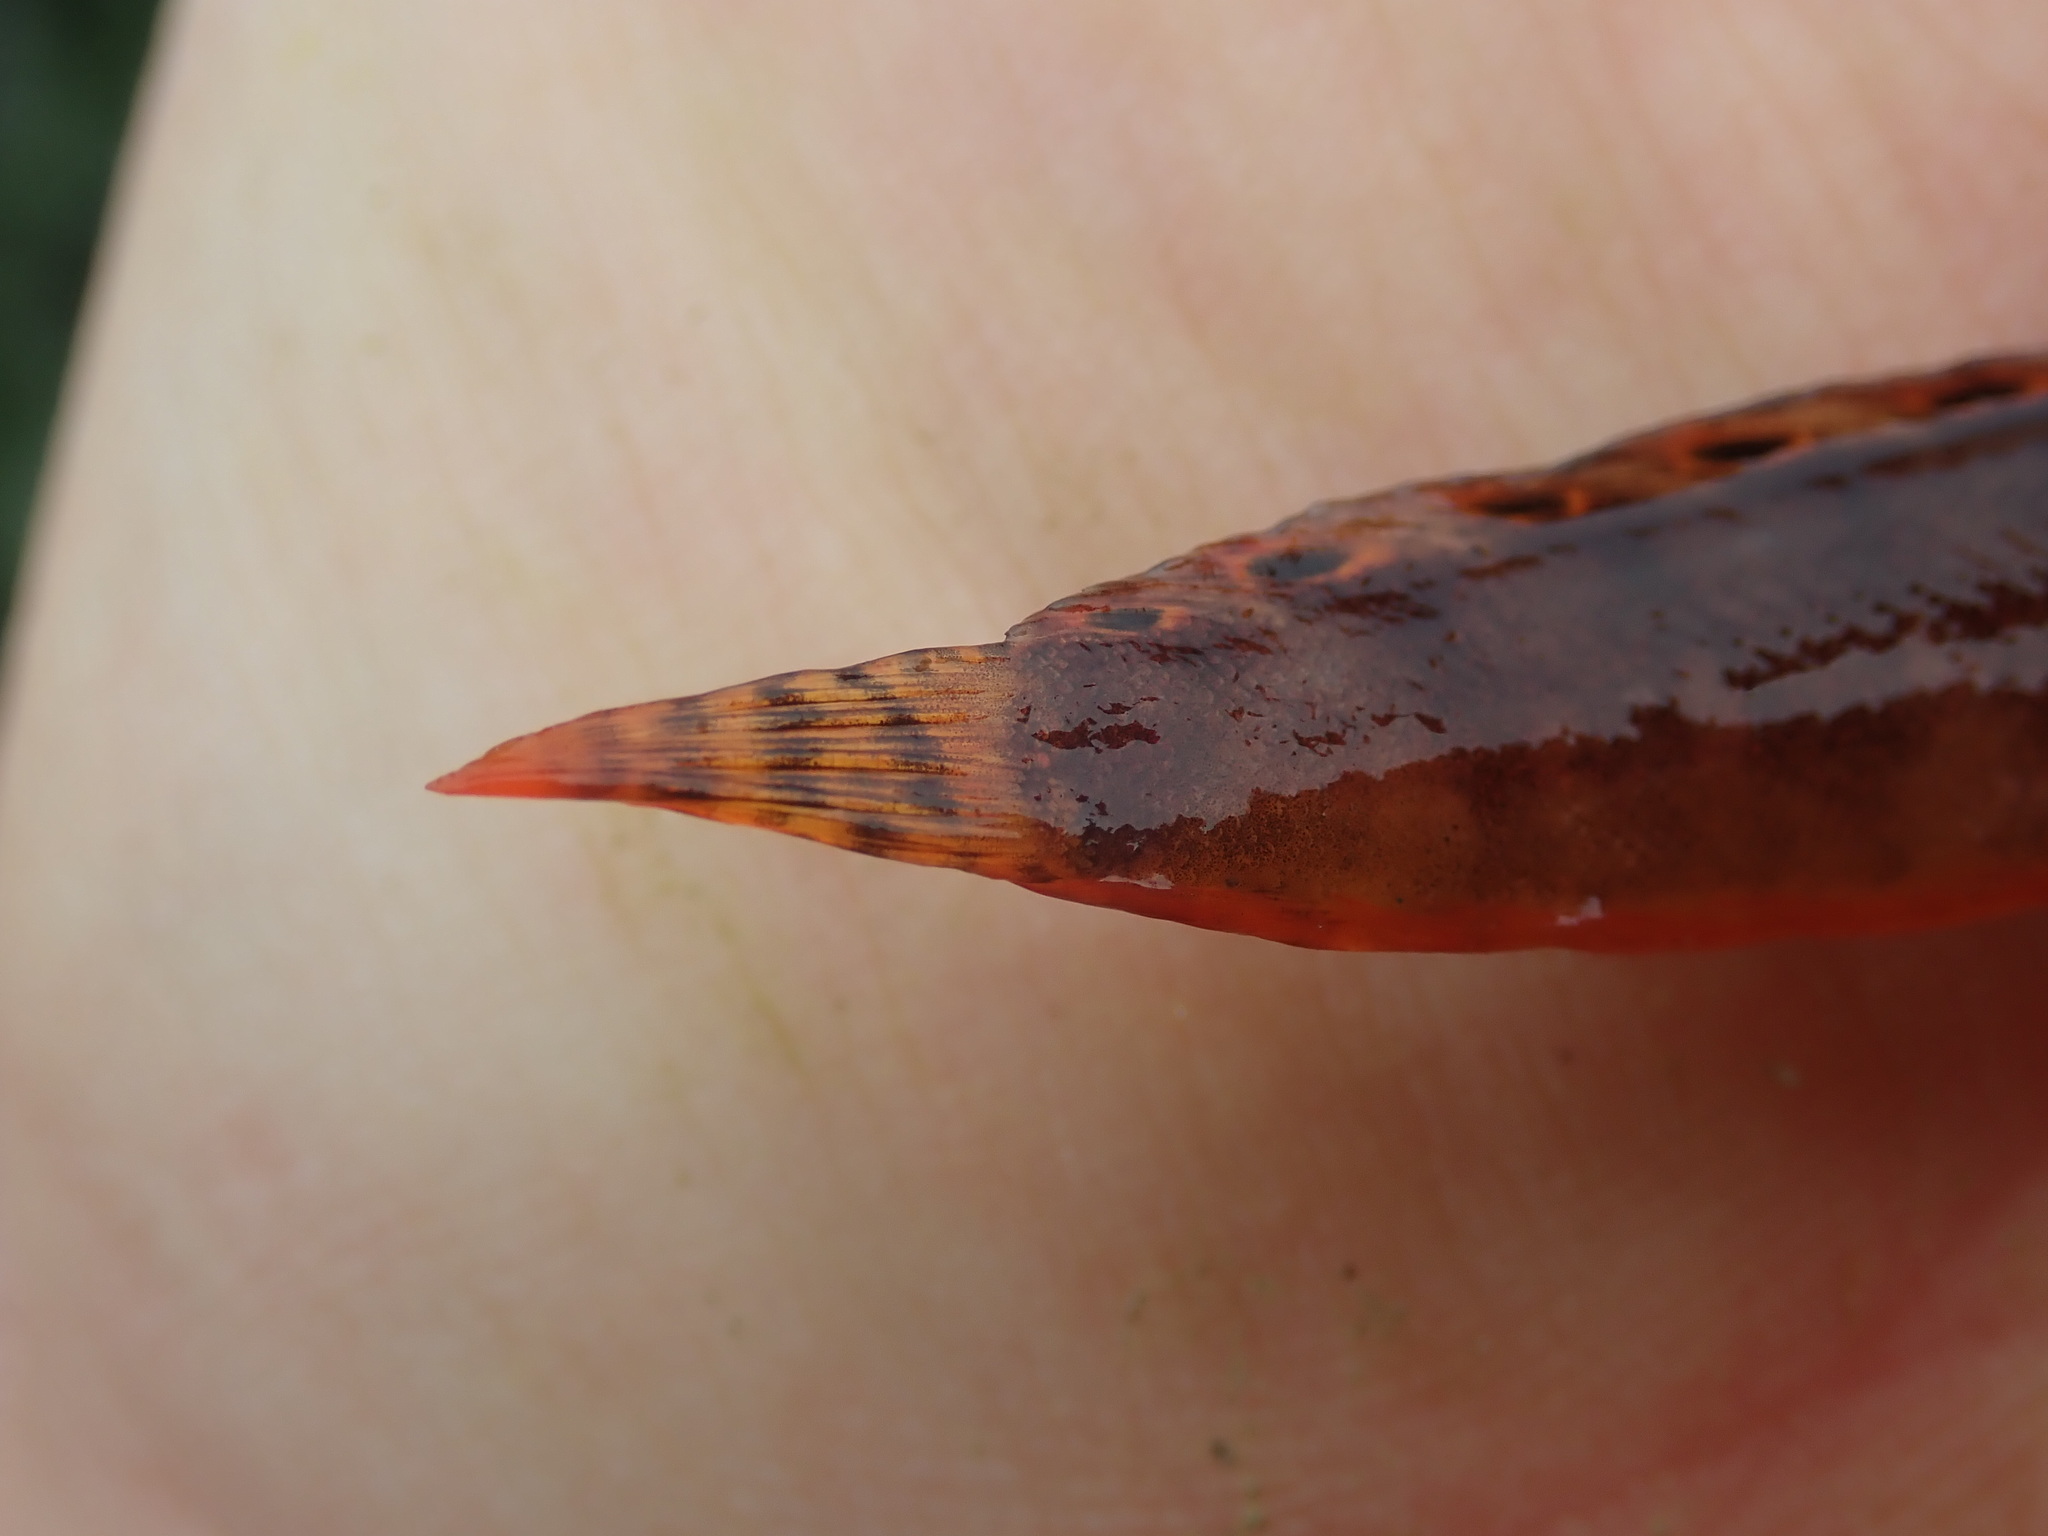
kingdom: Animalia
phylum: Chordata
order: Perciformes
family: Stichaeidae
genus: Chirolophis
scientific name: Chirolophis nugator
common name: Mosshead warbonnet
